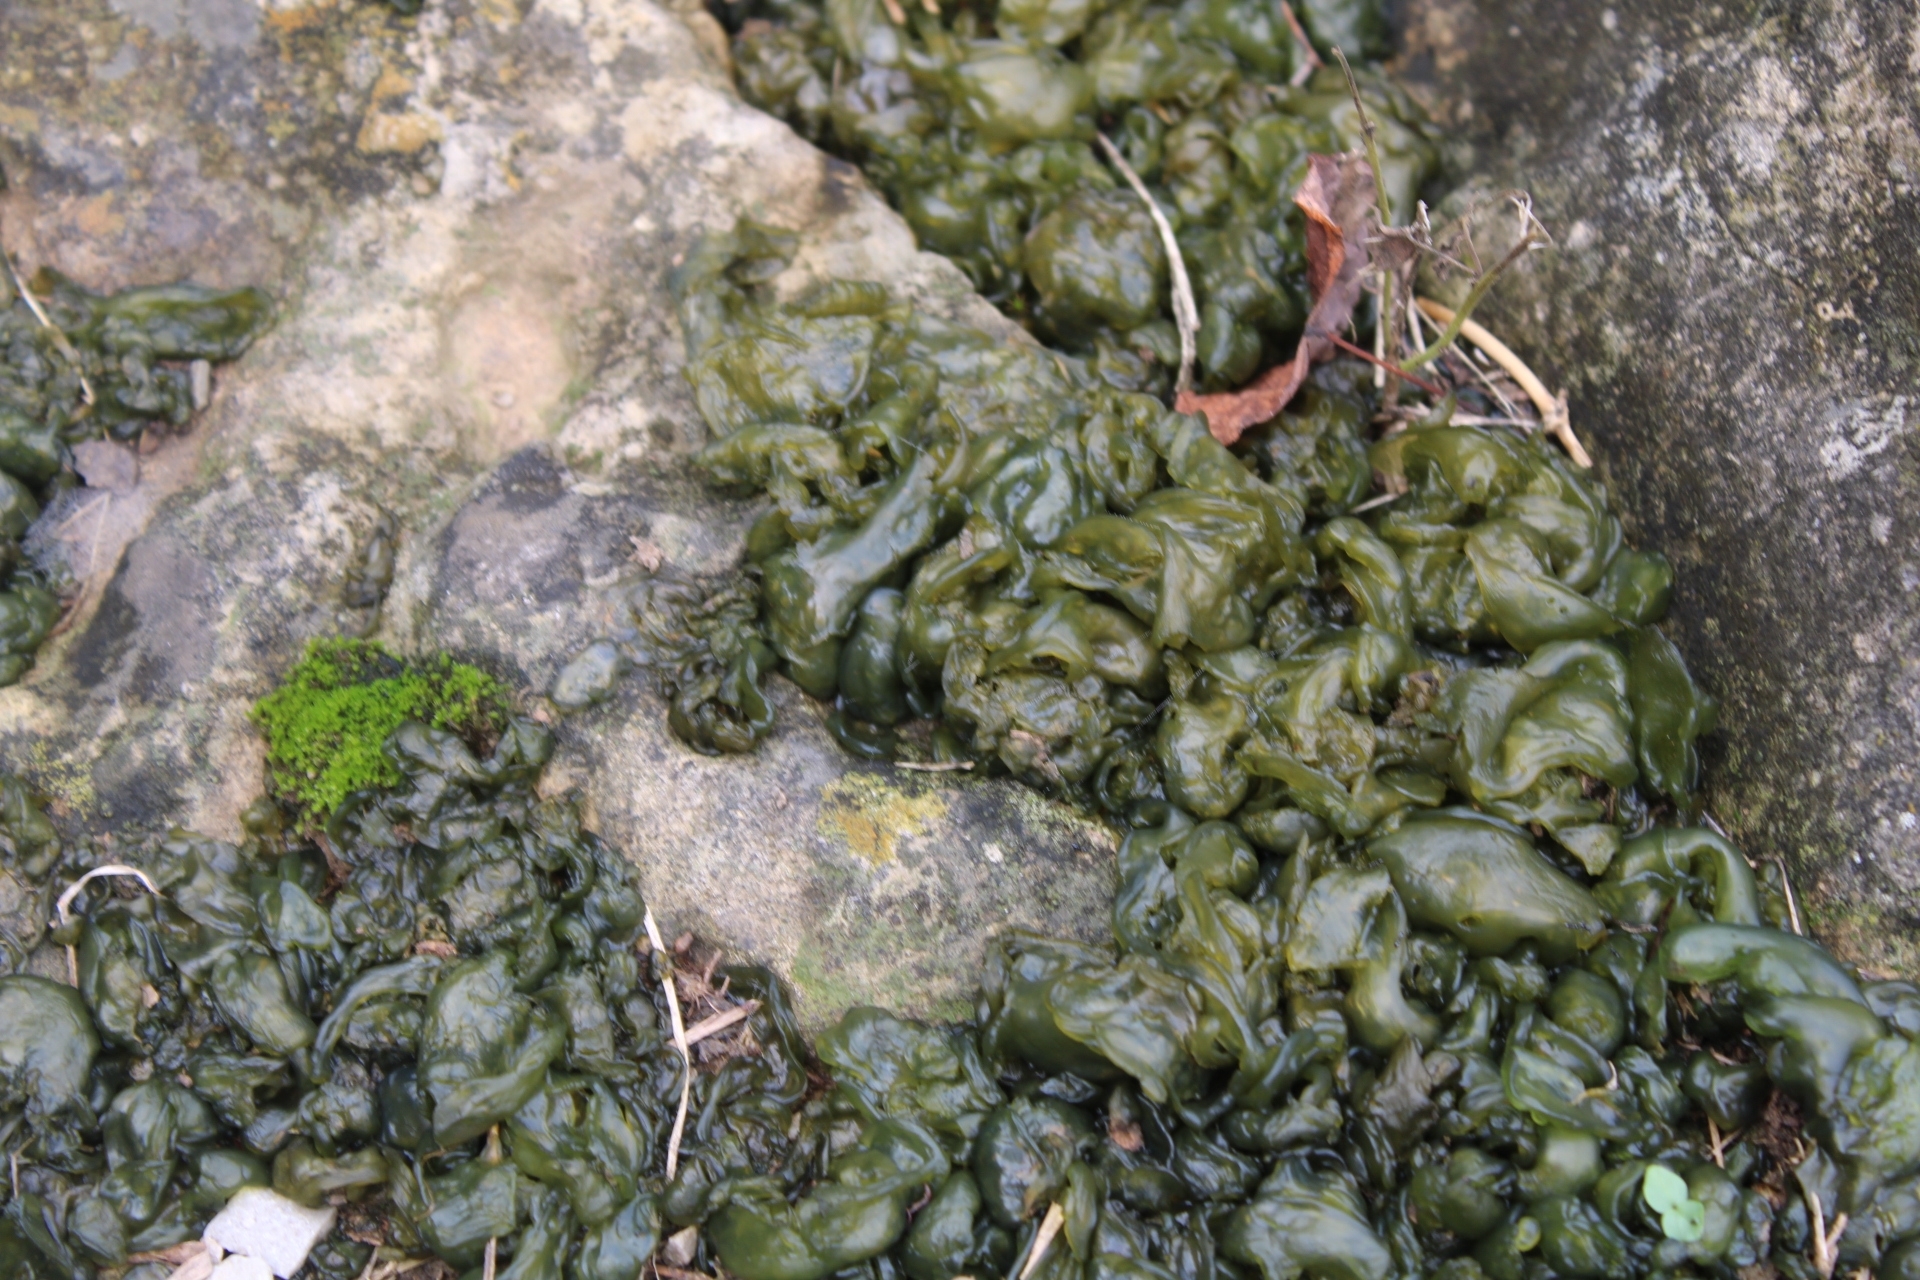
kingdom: Bacteria
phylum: Cyanobacteria
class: Cyanobacteriia
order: Cyanobacteriales
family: Nostocaceae
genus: Nostoc
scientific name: Nostoc commune
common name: Star jelly
